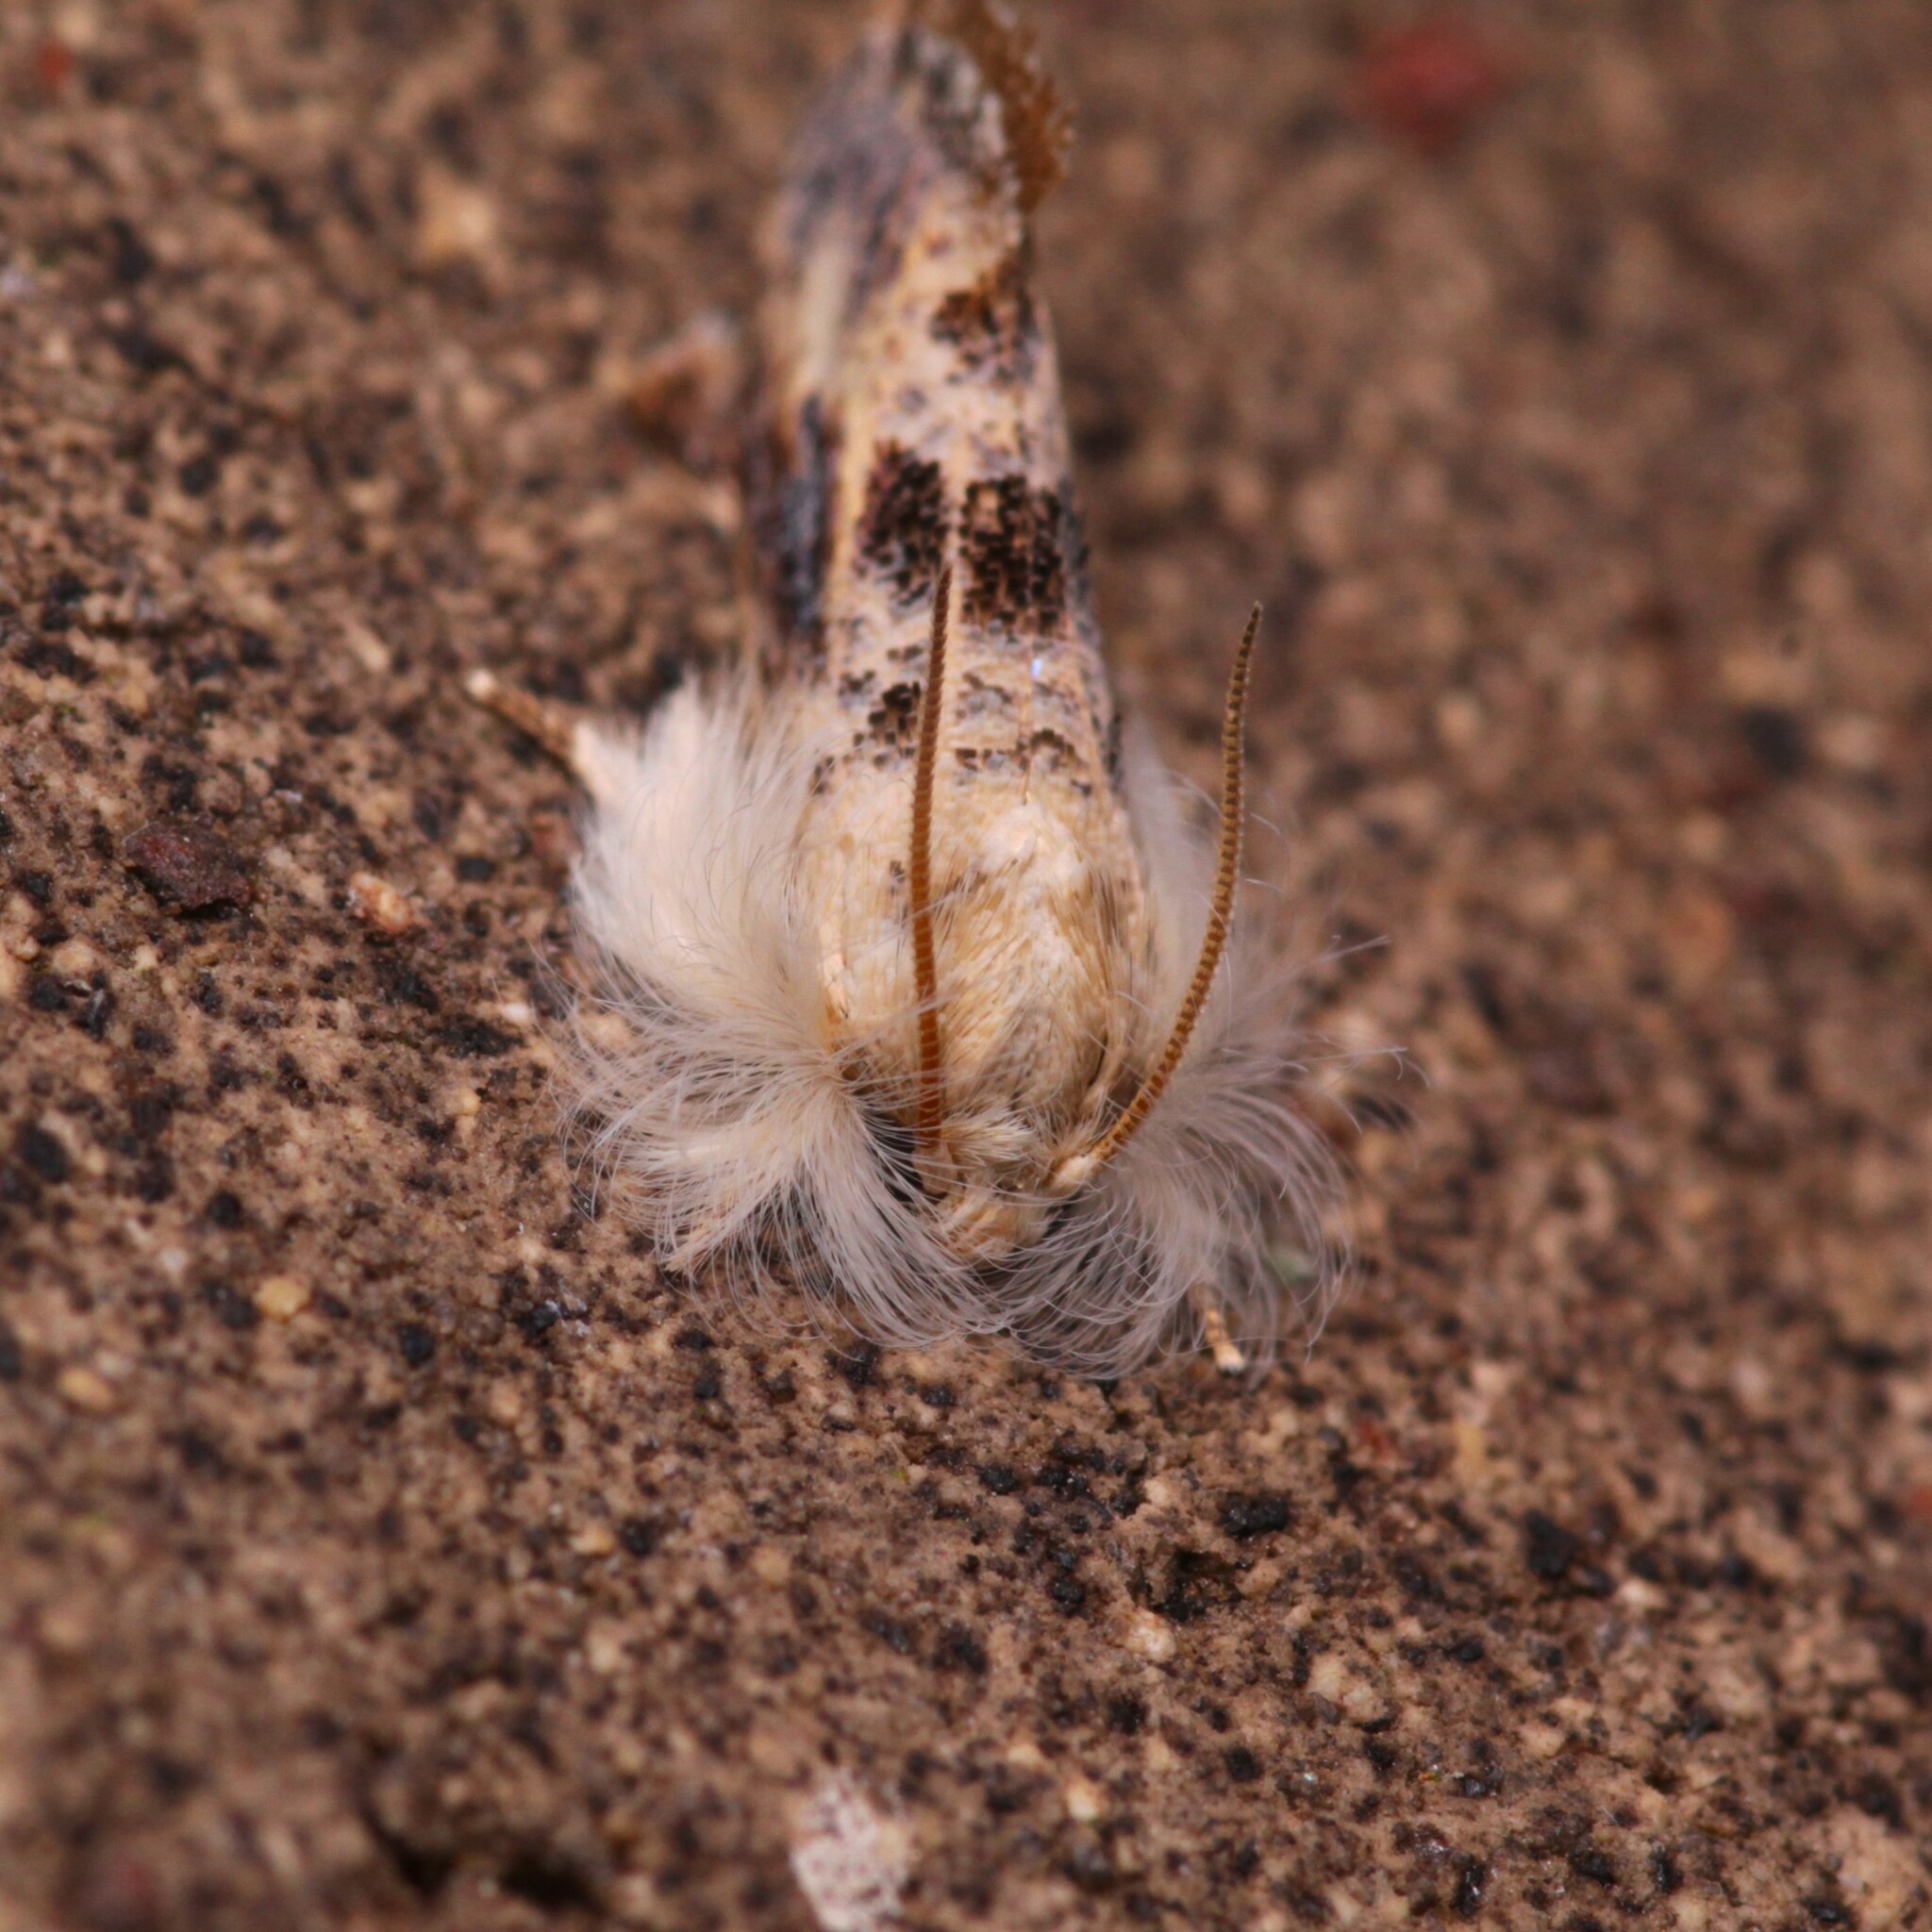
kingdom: Animalia
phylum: Arthropoda
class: Insecta
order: Lepidoptera
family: Tineidae
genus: Acrolophus
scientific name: Acrolophus mycetophagus
